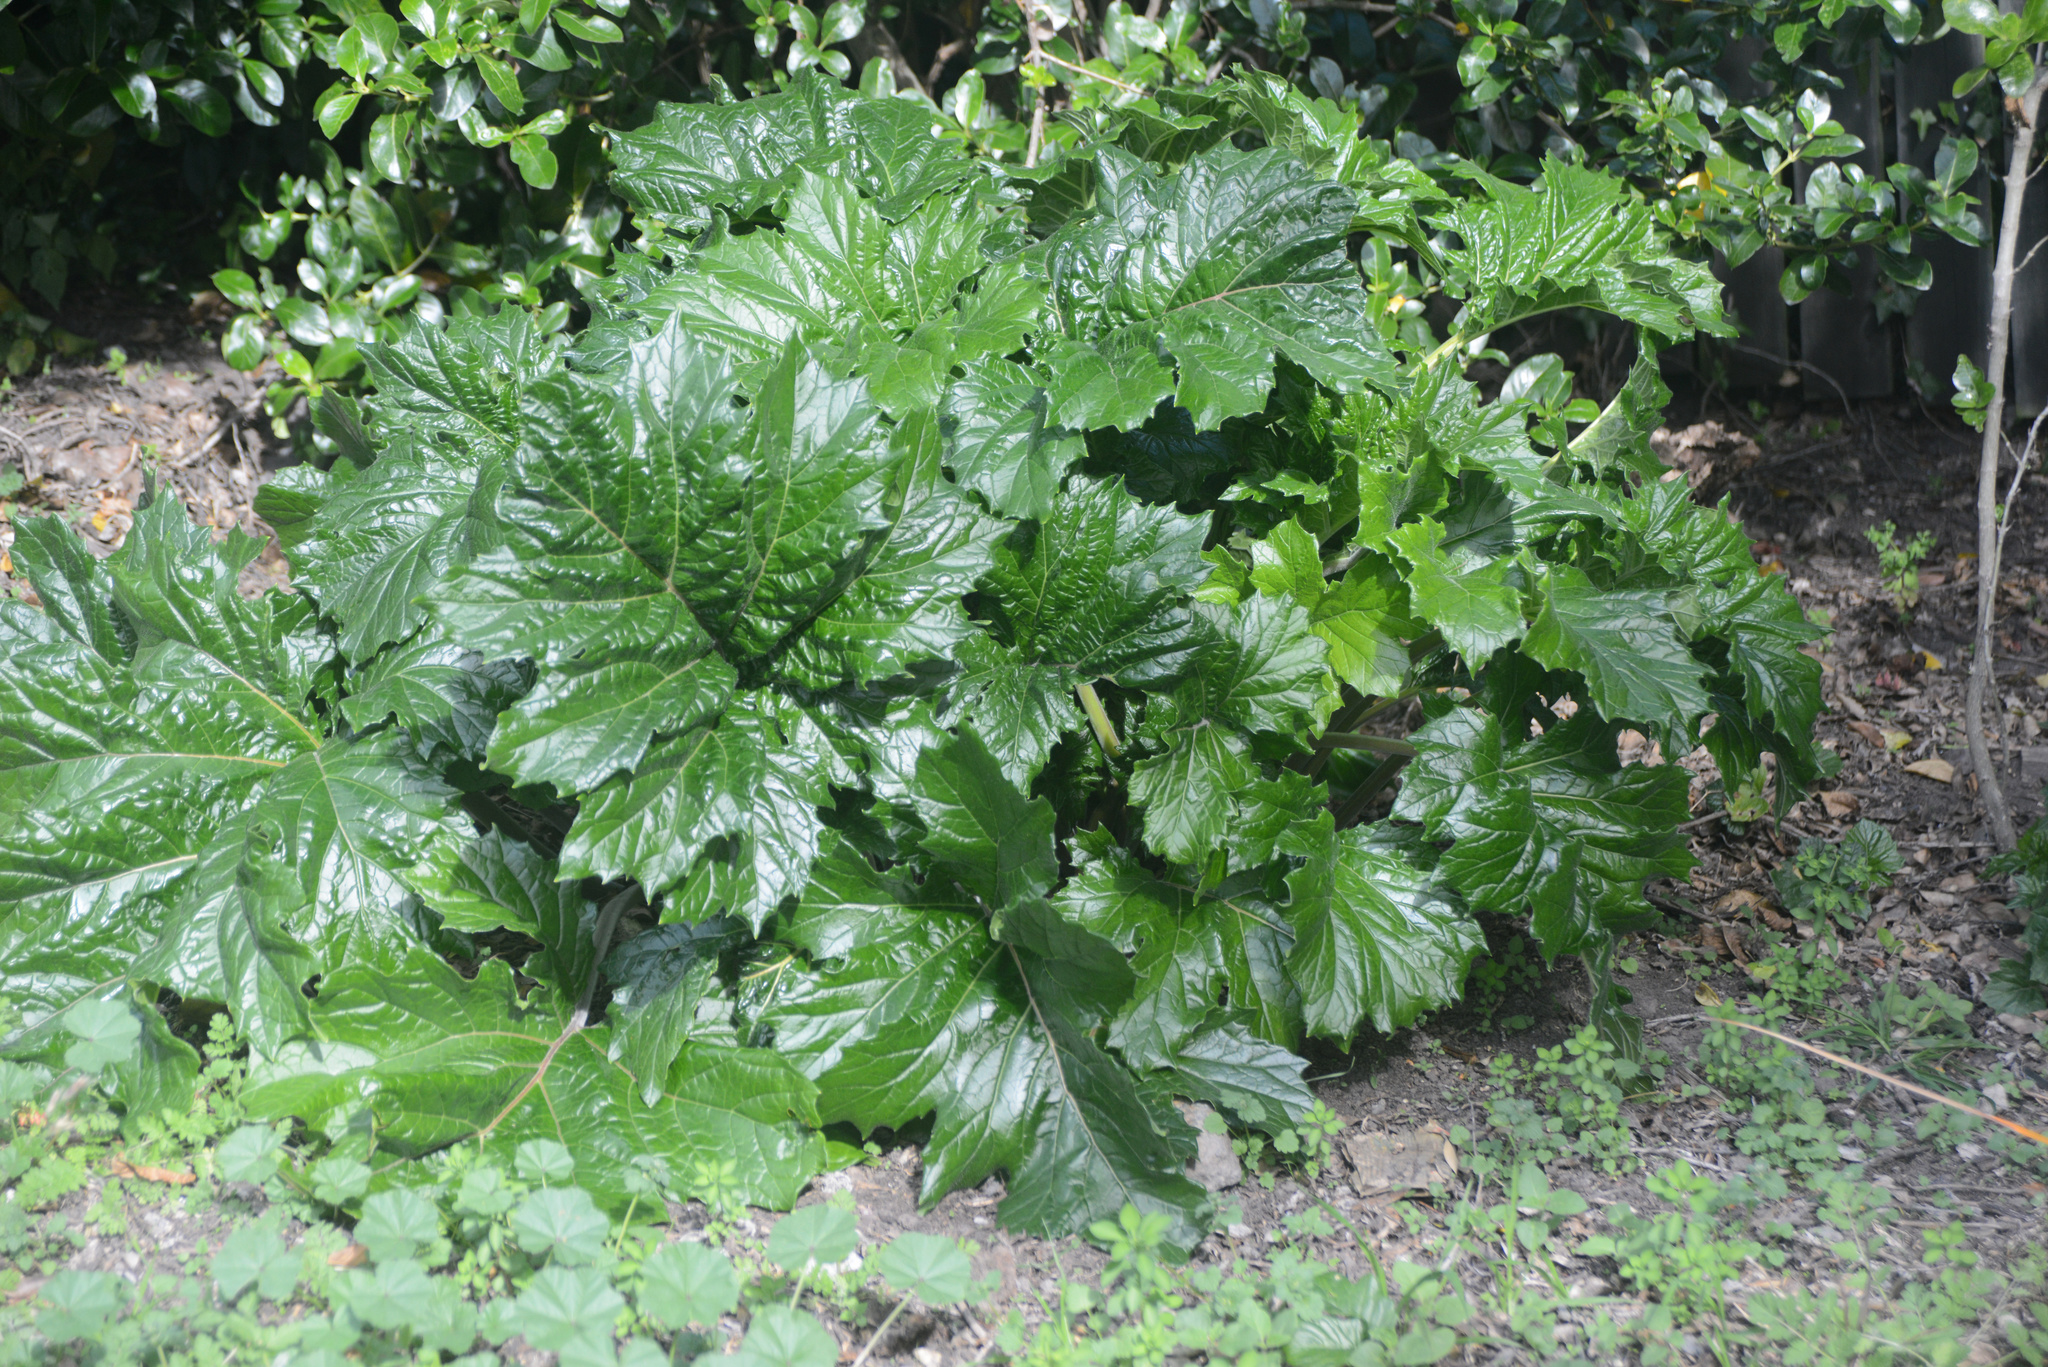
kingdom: Plantae
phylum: Tracheophyta
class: Magnoliopsida
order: Lamiales
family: Acanthaceae
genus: Acanthus
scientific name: Acanthus mollis
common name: Bear's-breech
